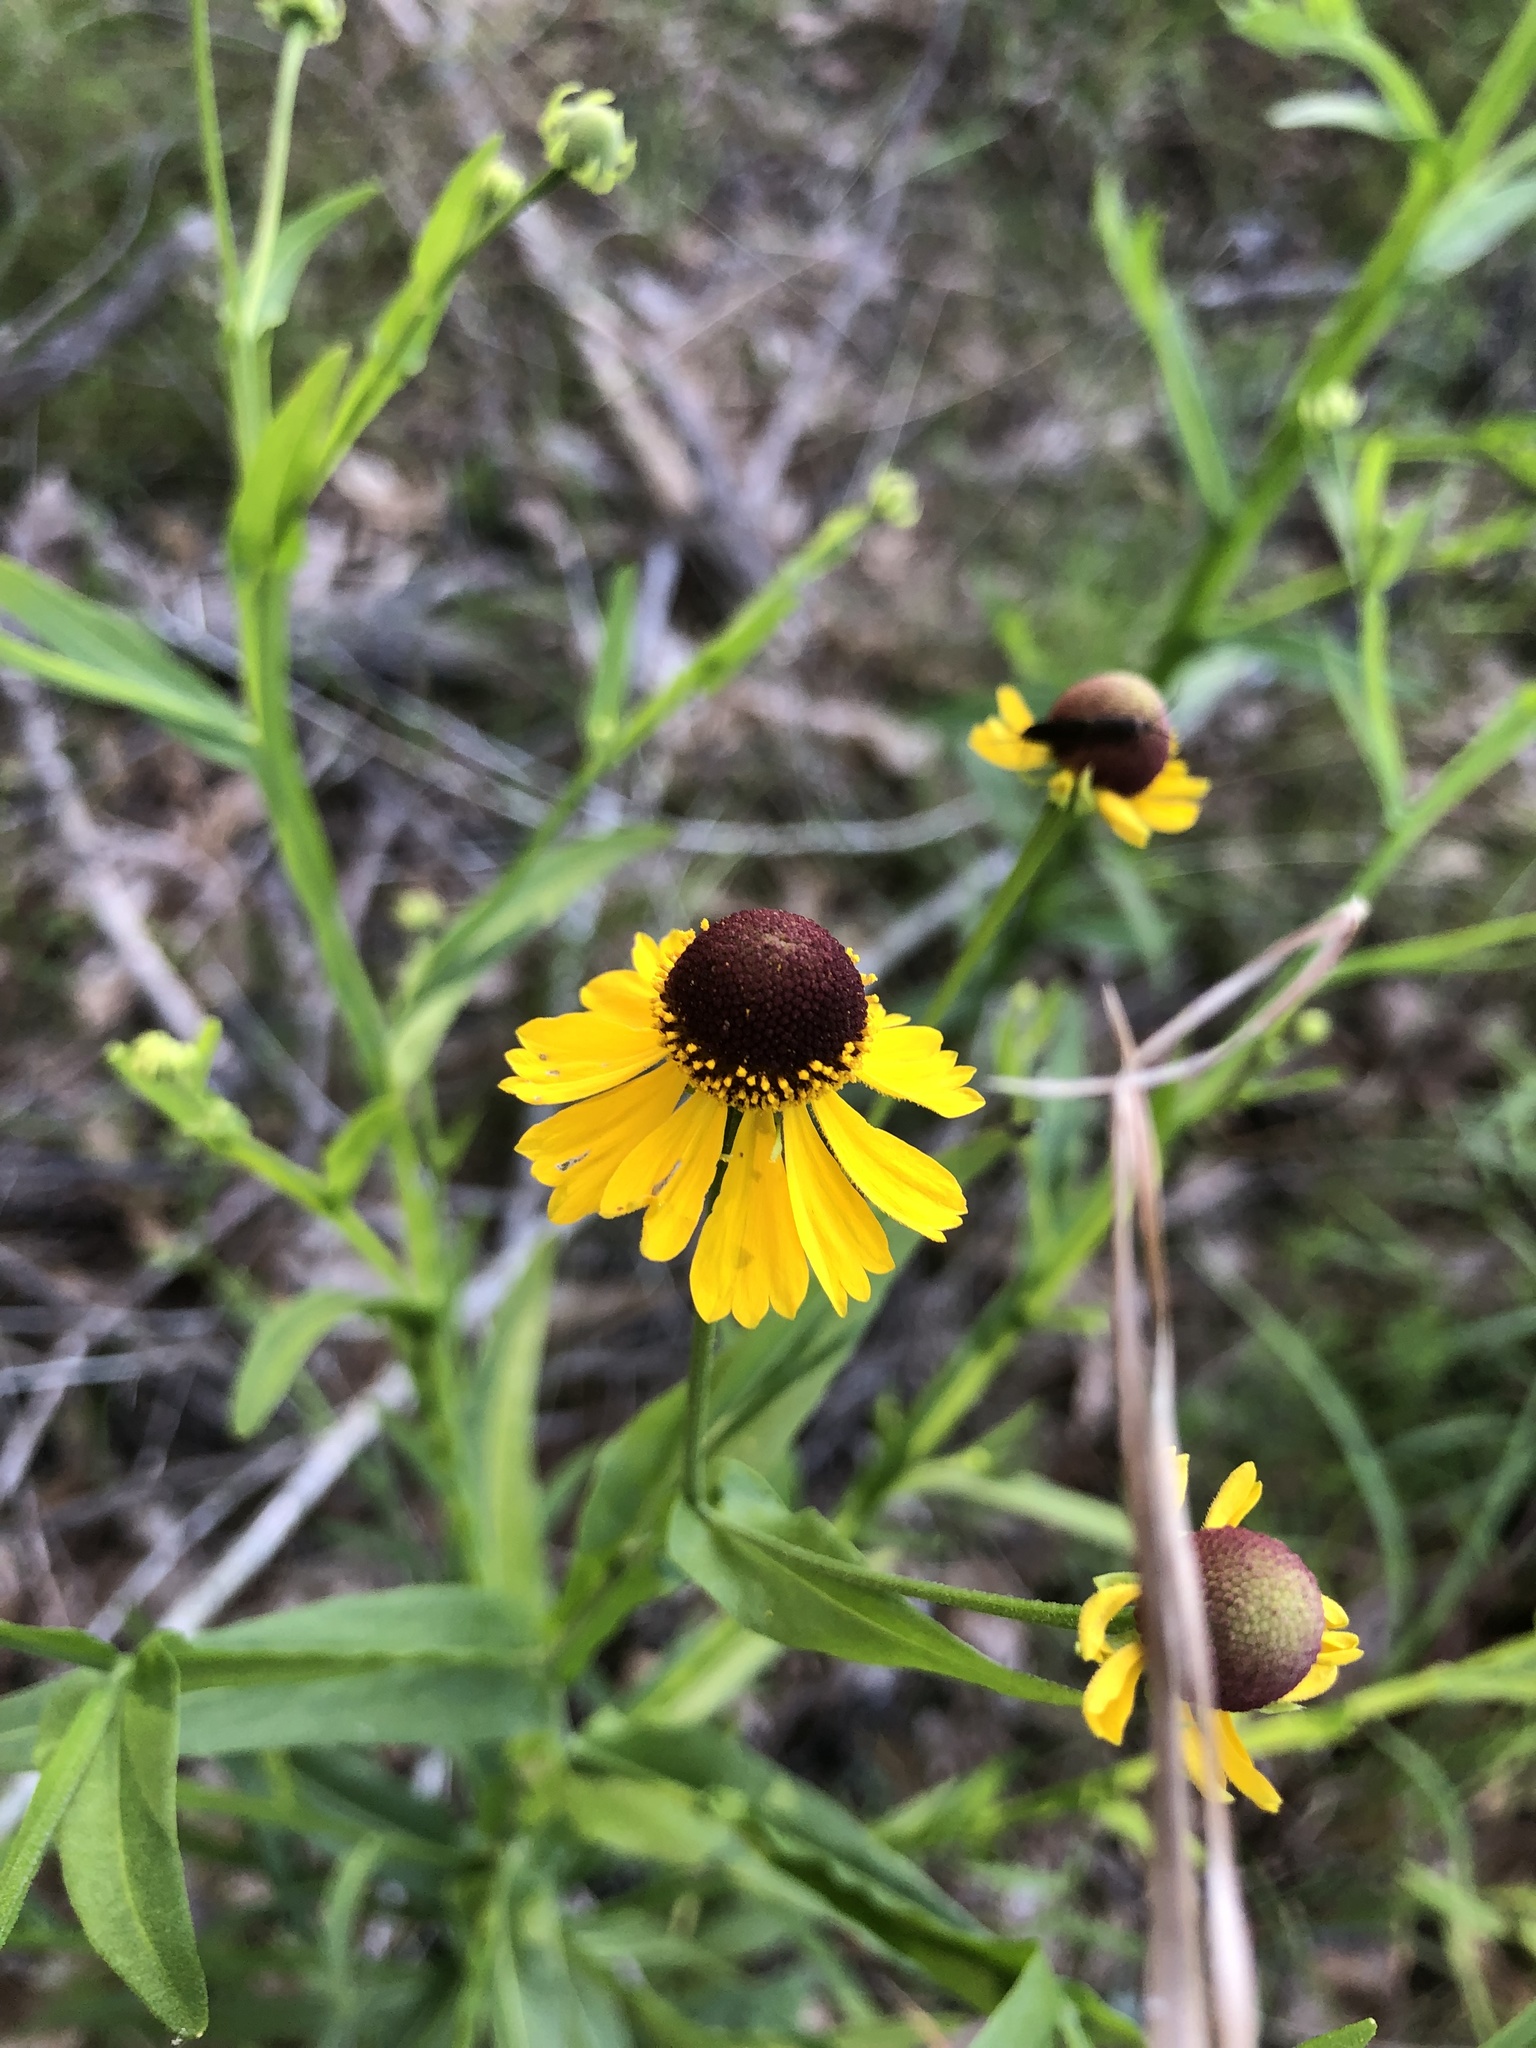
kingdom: Plantae
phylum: Tracheophyta
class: Magnoliopsida
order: Asterales
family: Asteraceae
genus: Helenium
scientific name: Helenium flexuosum
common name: Naked-flowered sneezeweed
